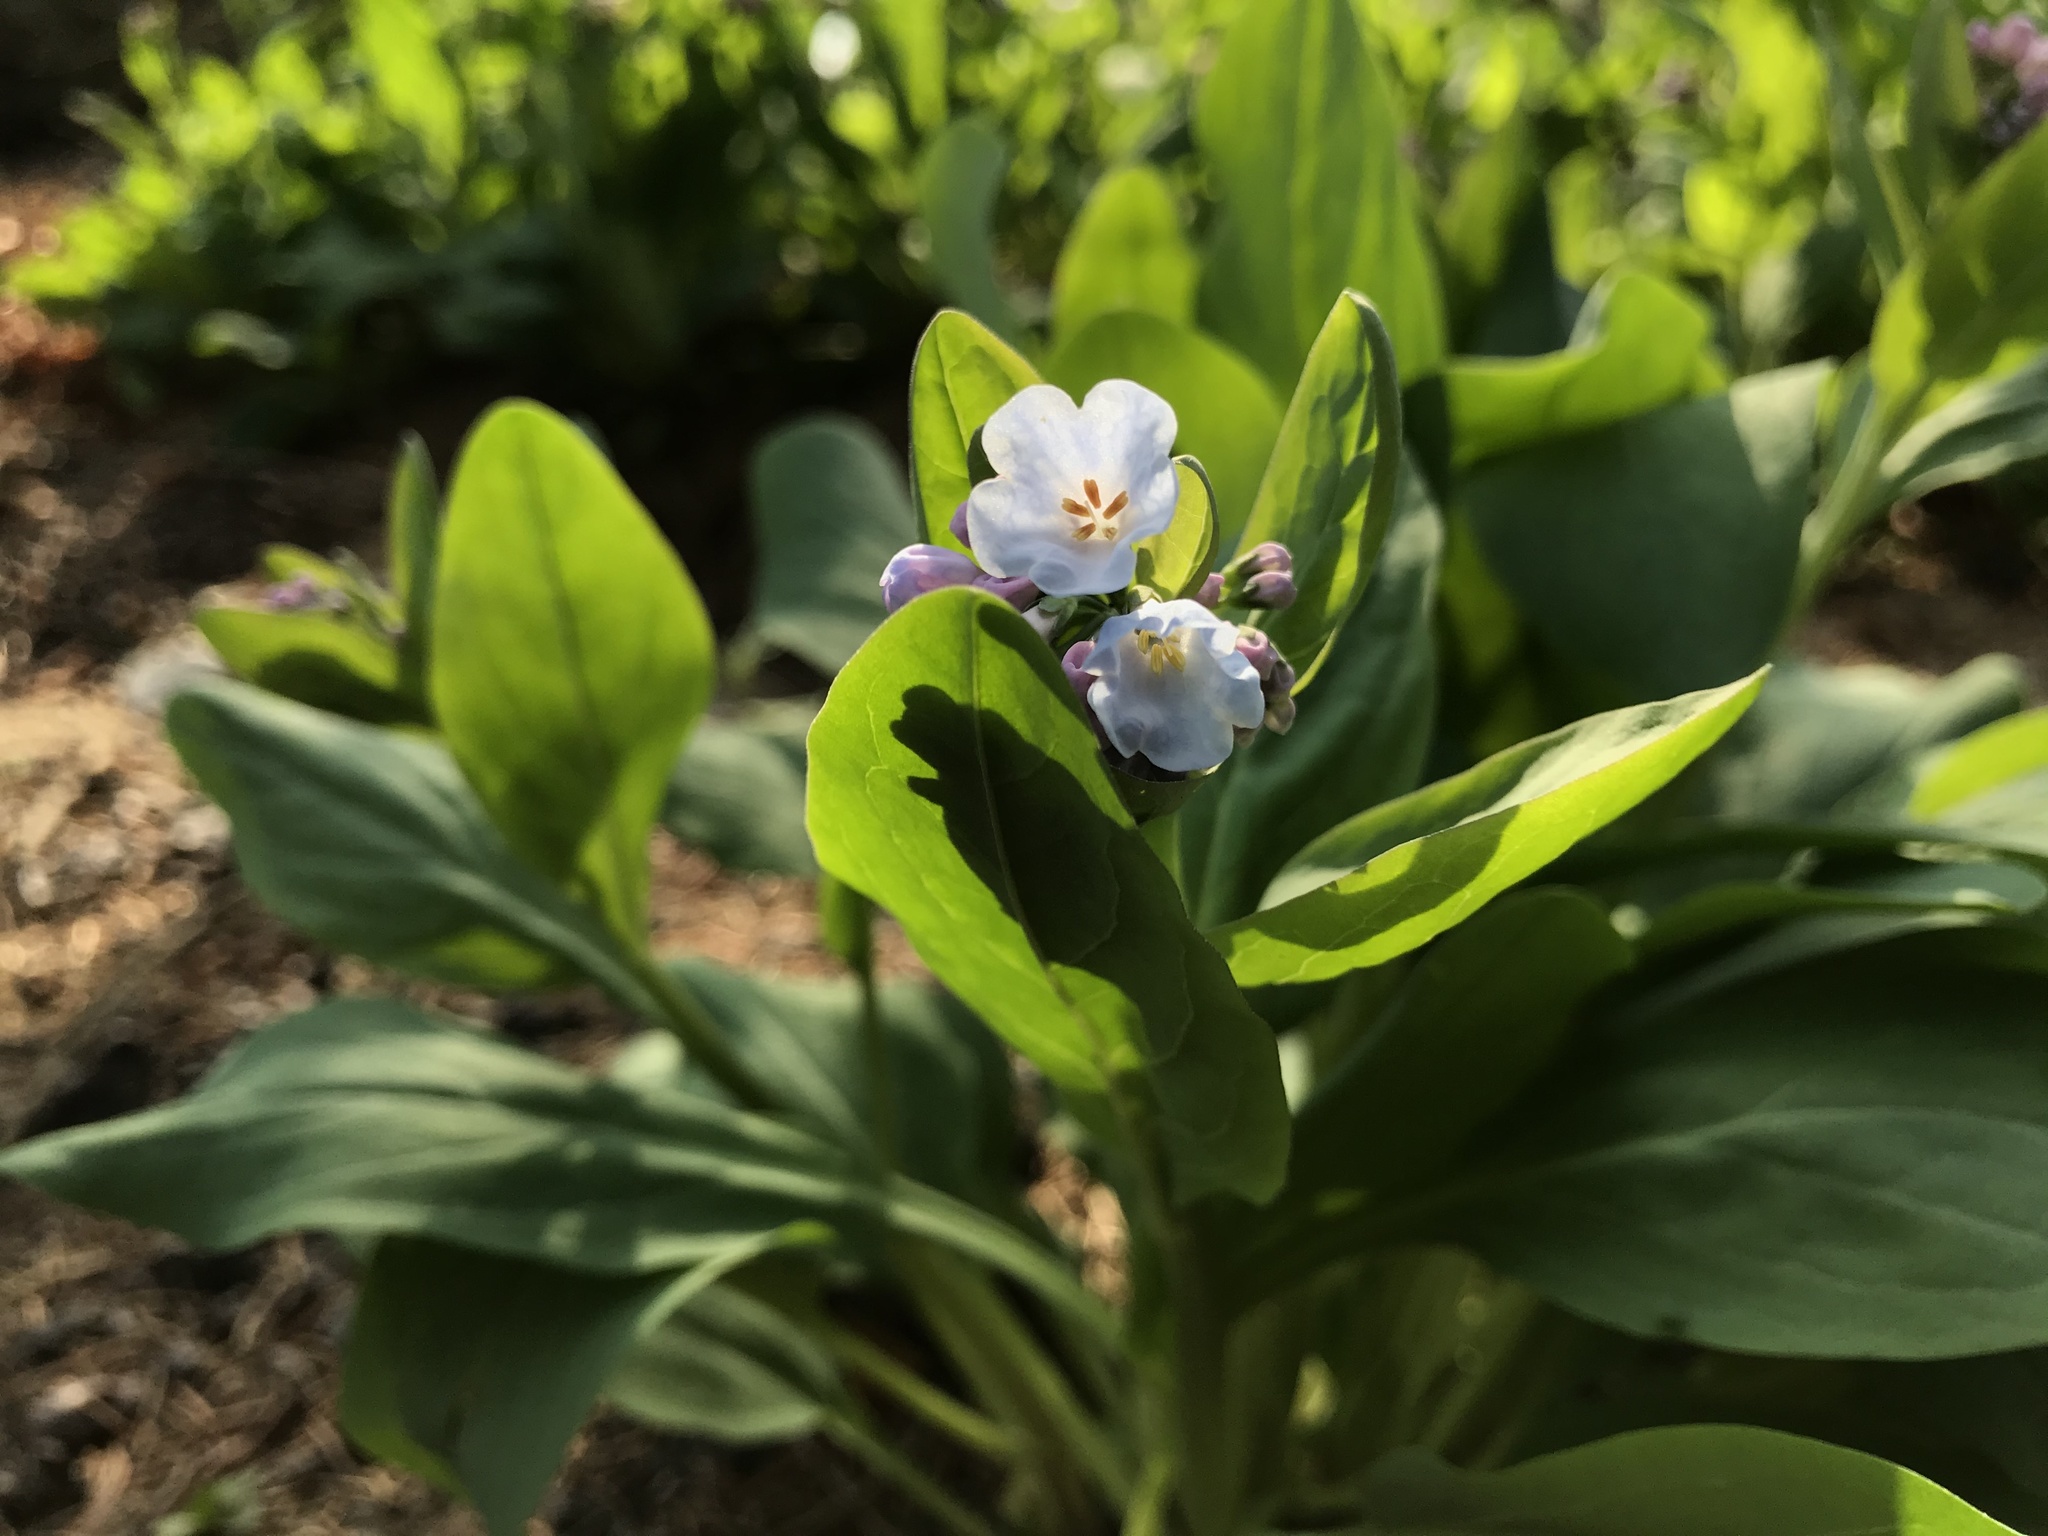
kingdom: Plantae
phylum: Tracheophyta
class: Magnoliopsida
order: Boraginales
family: Boraginaceae
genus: Mertensia
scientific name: Mertensia virginica
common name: Virginia bluebells
